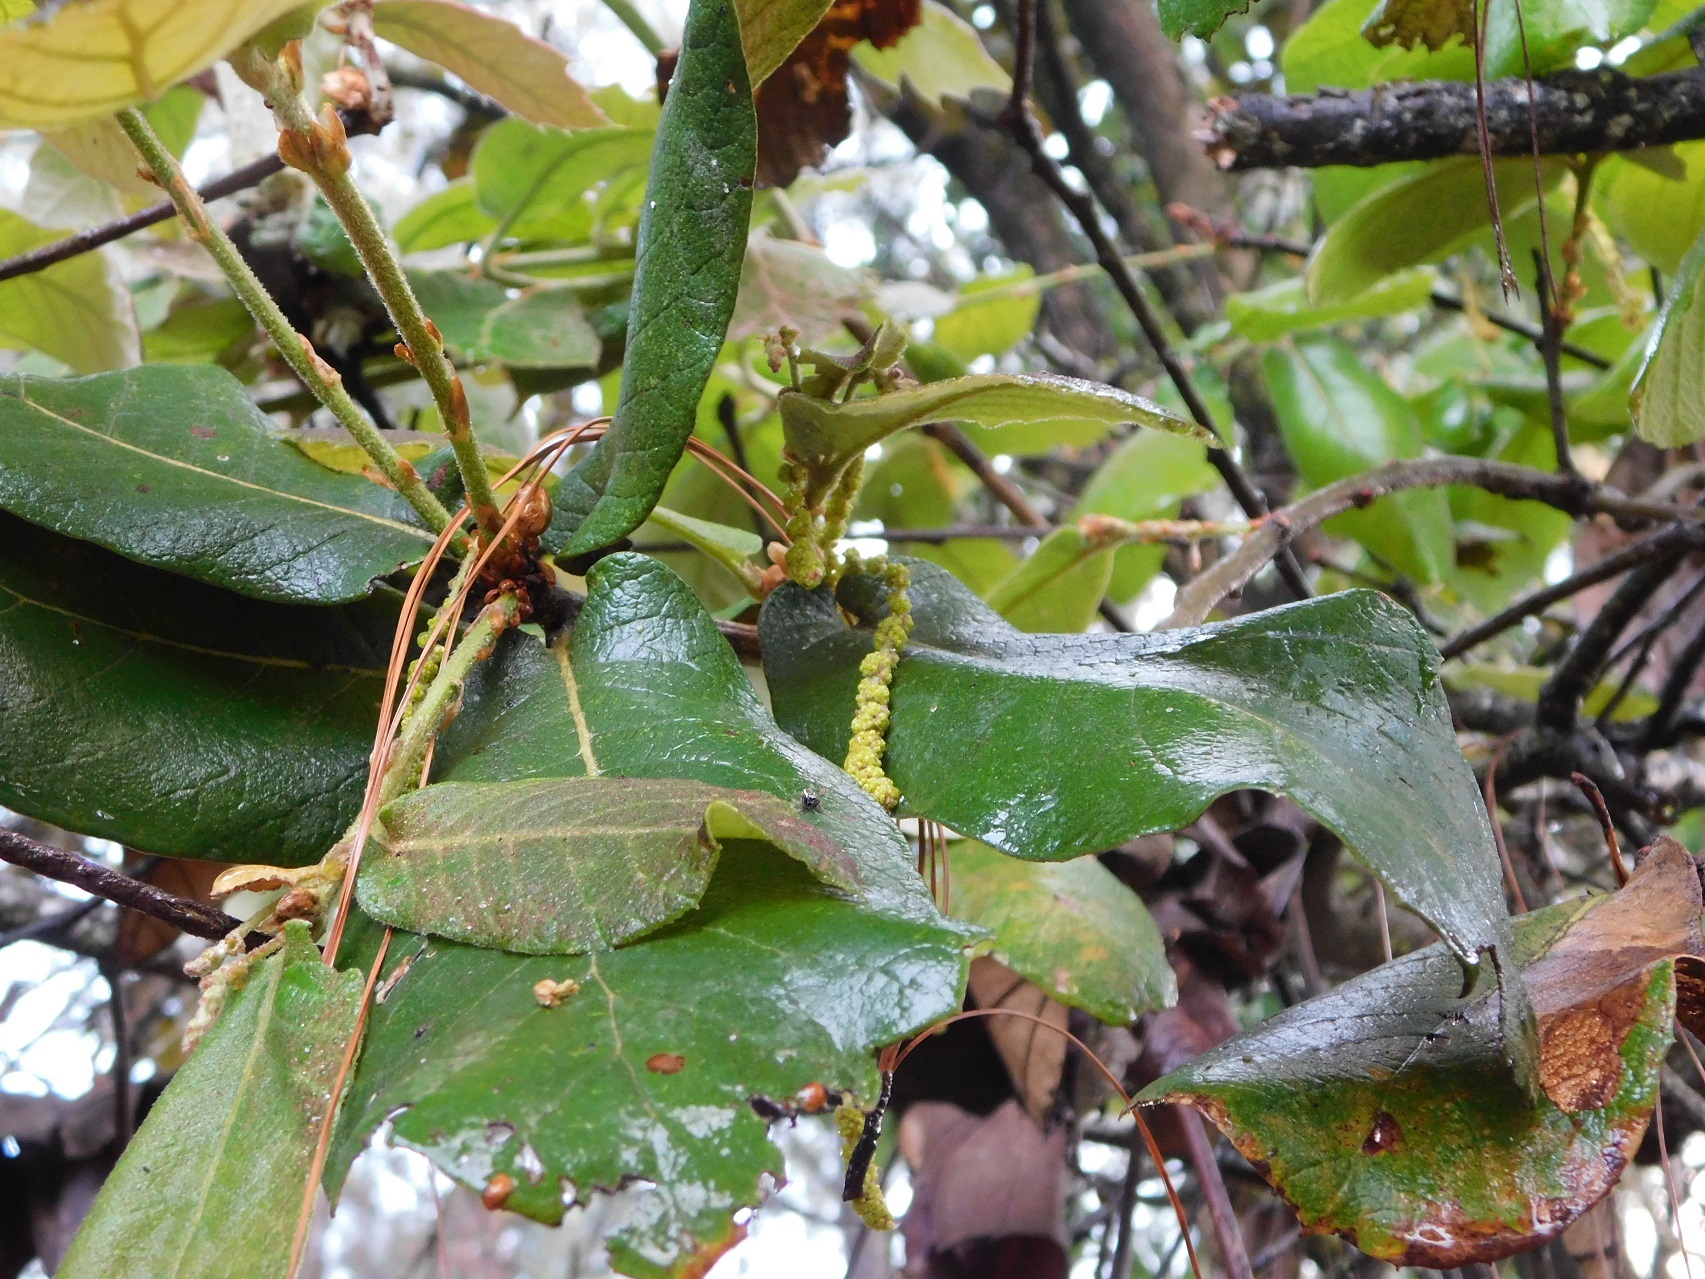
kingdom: Plantae
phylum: Tracheophyta
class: Magnoliopsida
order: Fagales
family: Fagaceae
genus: Quercus
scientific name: Quercus rugosa
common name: Netleaf oak
